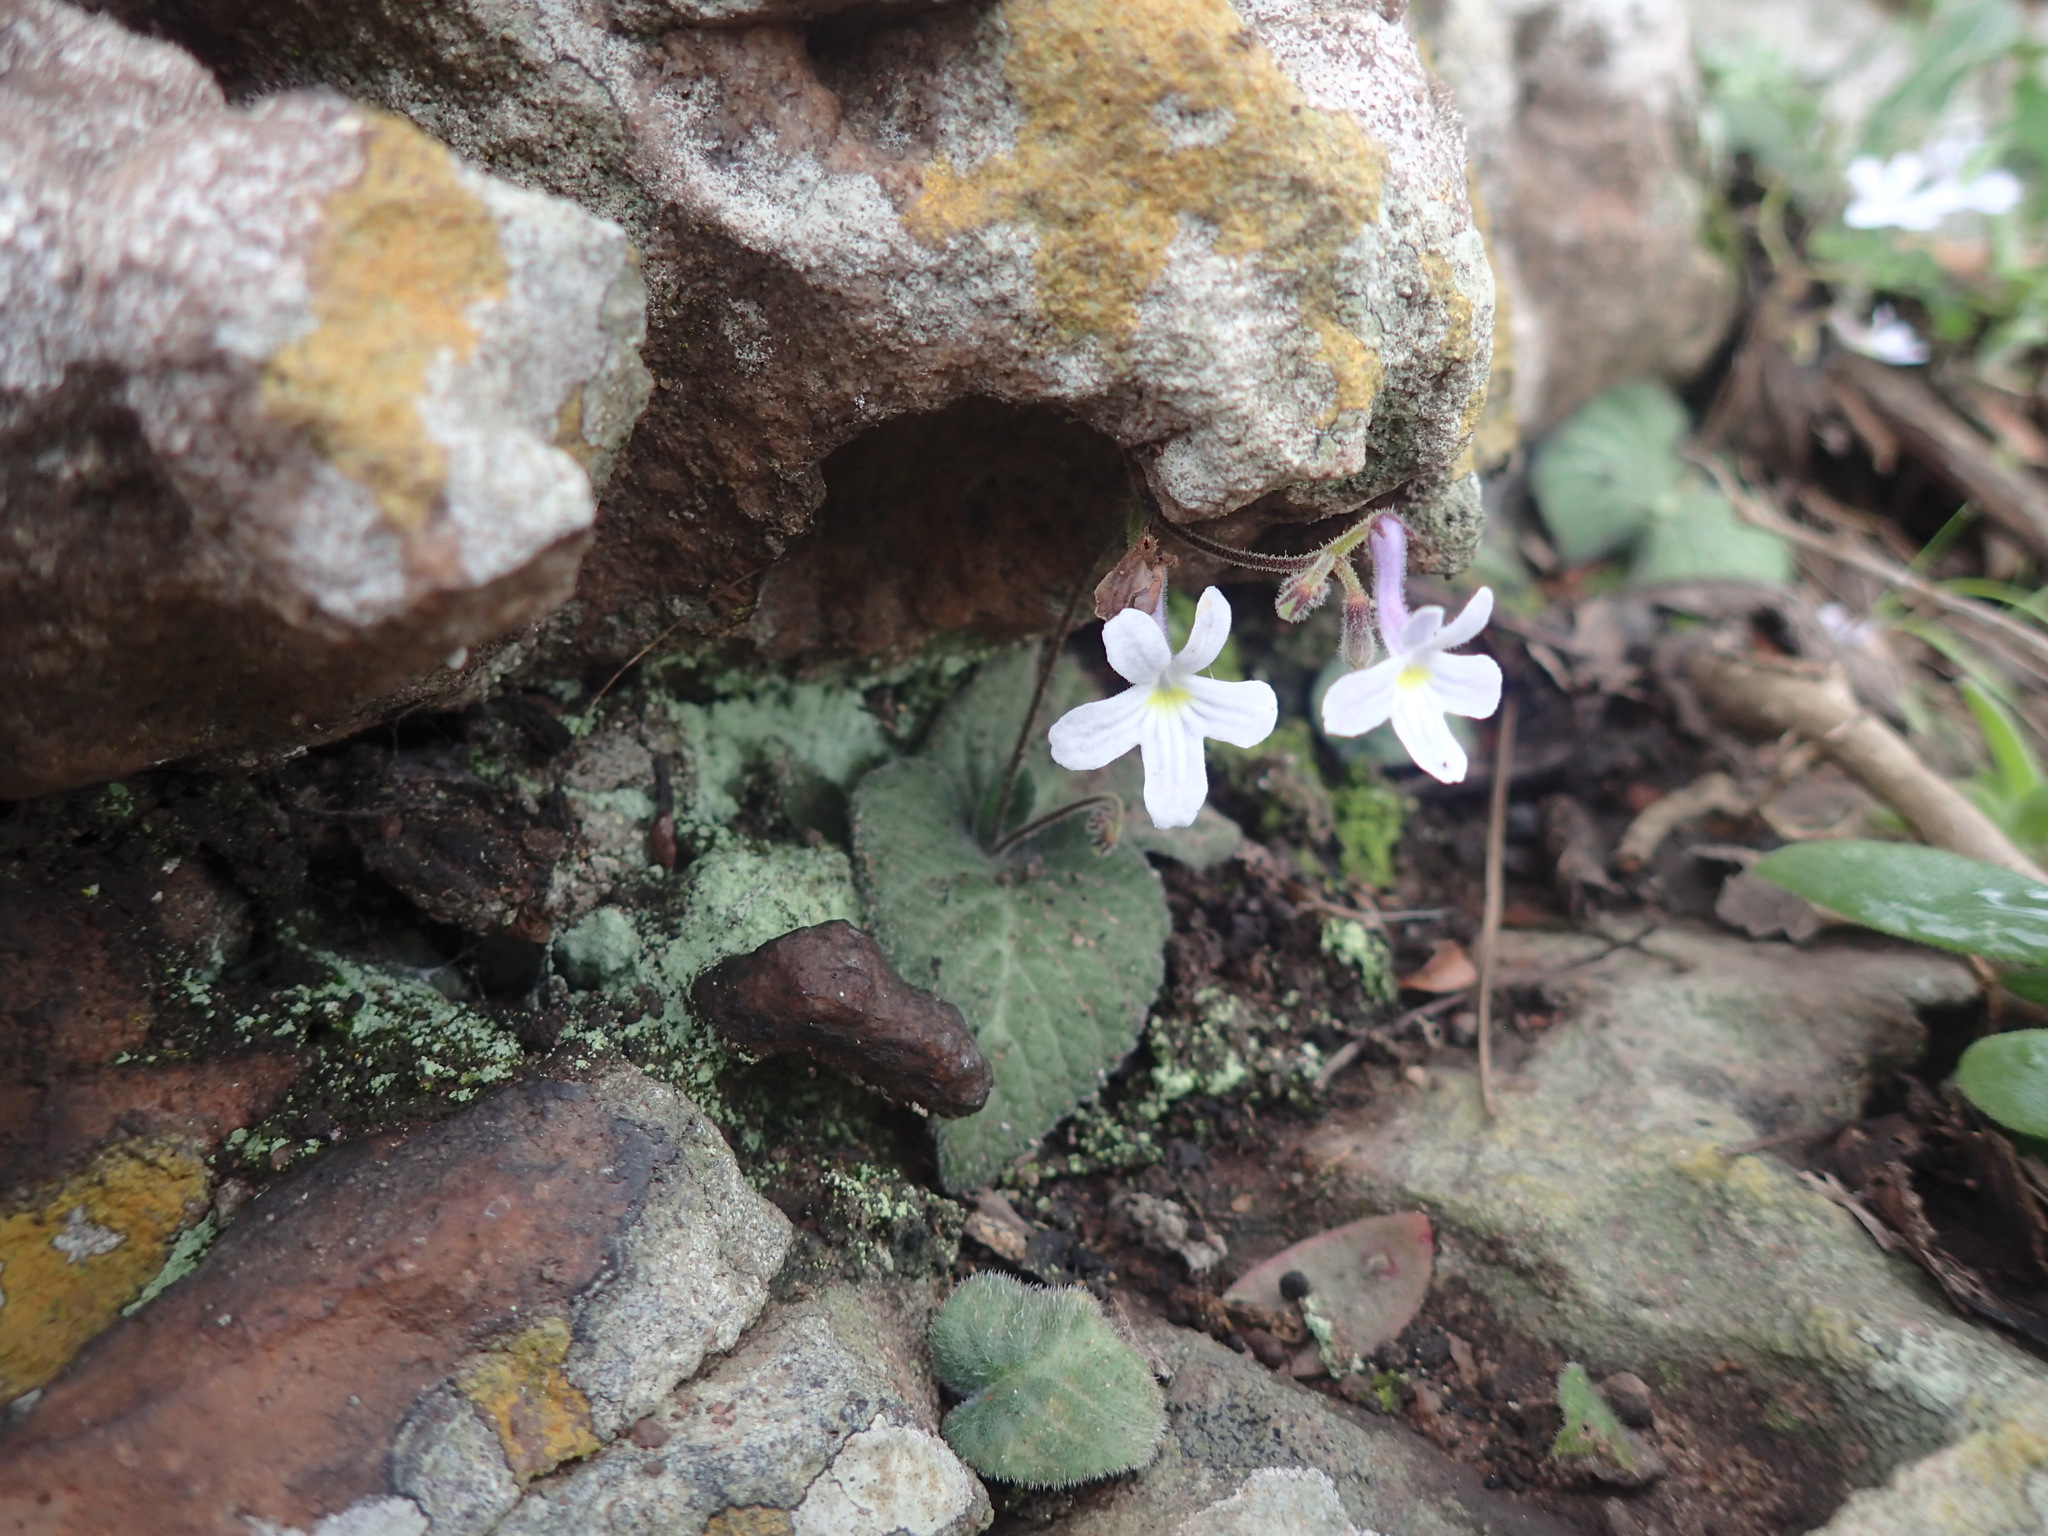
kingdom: Plantae
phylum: Tracheophyta
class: Magnoliopsida
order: Lamiales
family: Gesneriaceae
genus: Streptocarpus
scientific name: Streptocarpus prolixus
